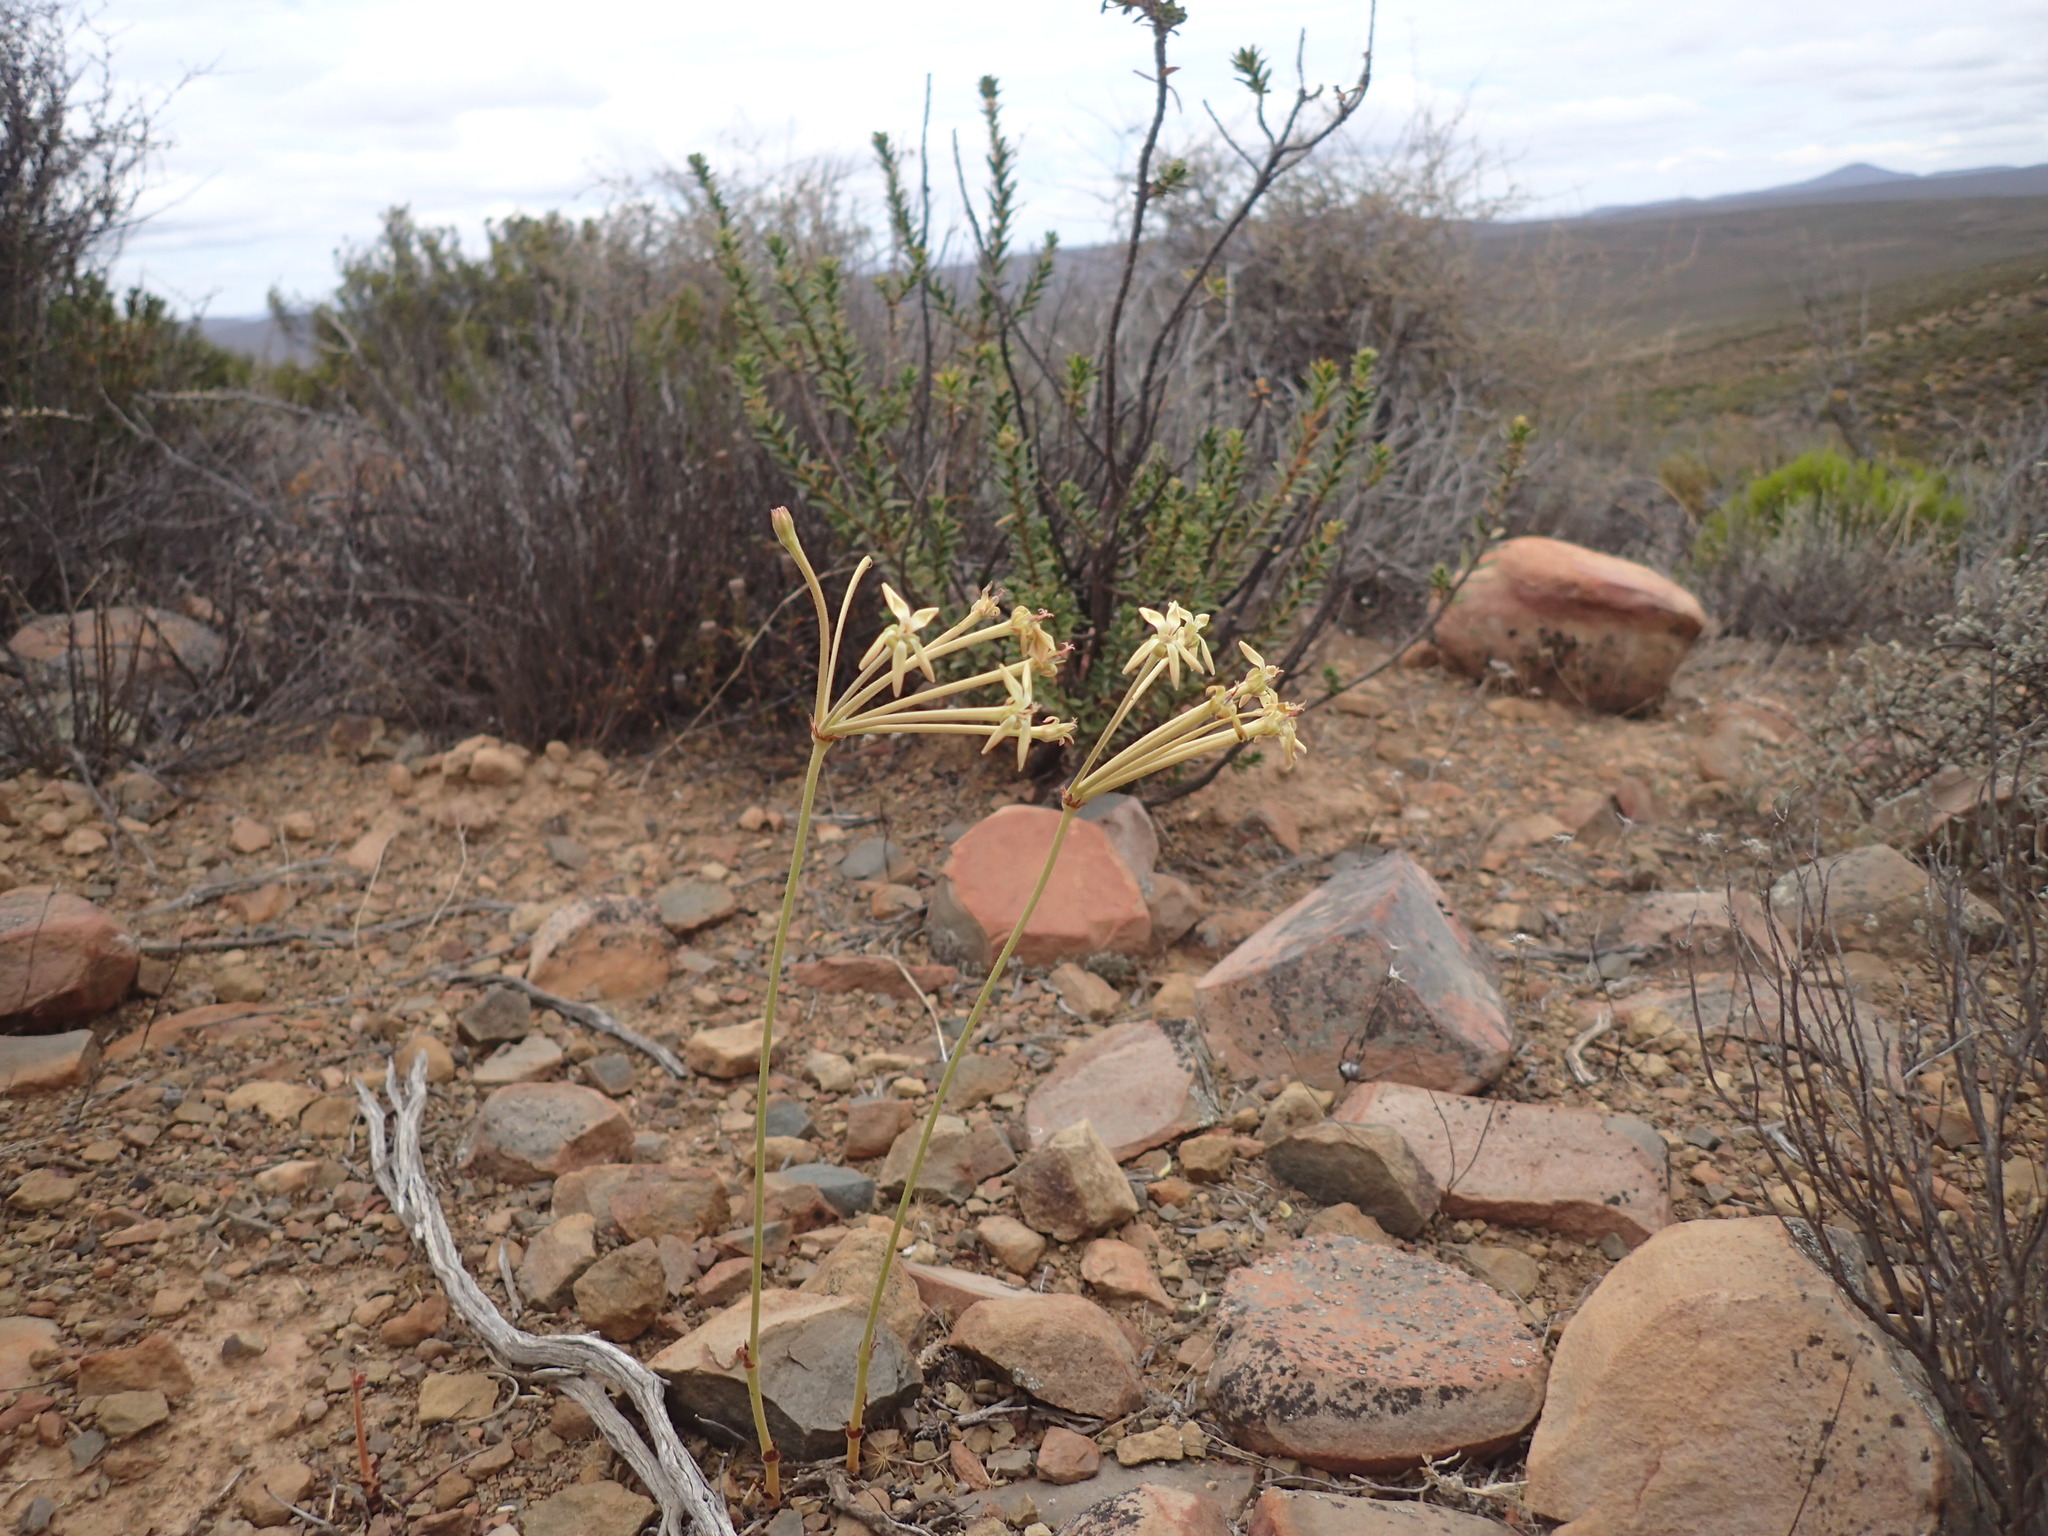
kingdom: Plantae
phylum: Tracheophyta
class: Magnoliopsida
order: Geraniales
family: Geraniaceae
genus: Pelargonium
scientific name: Pelargonium pillansii
